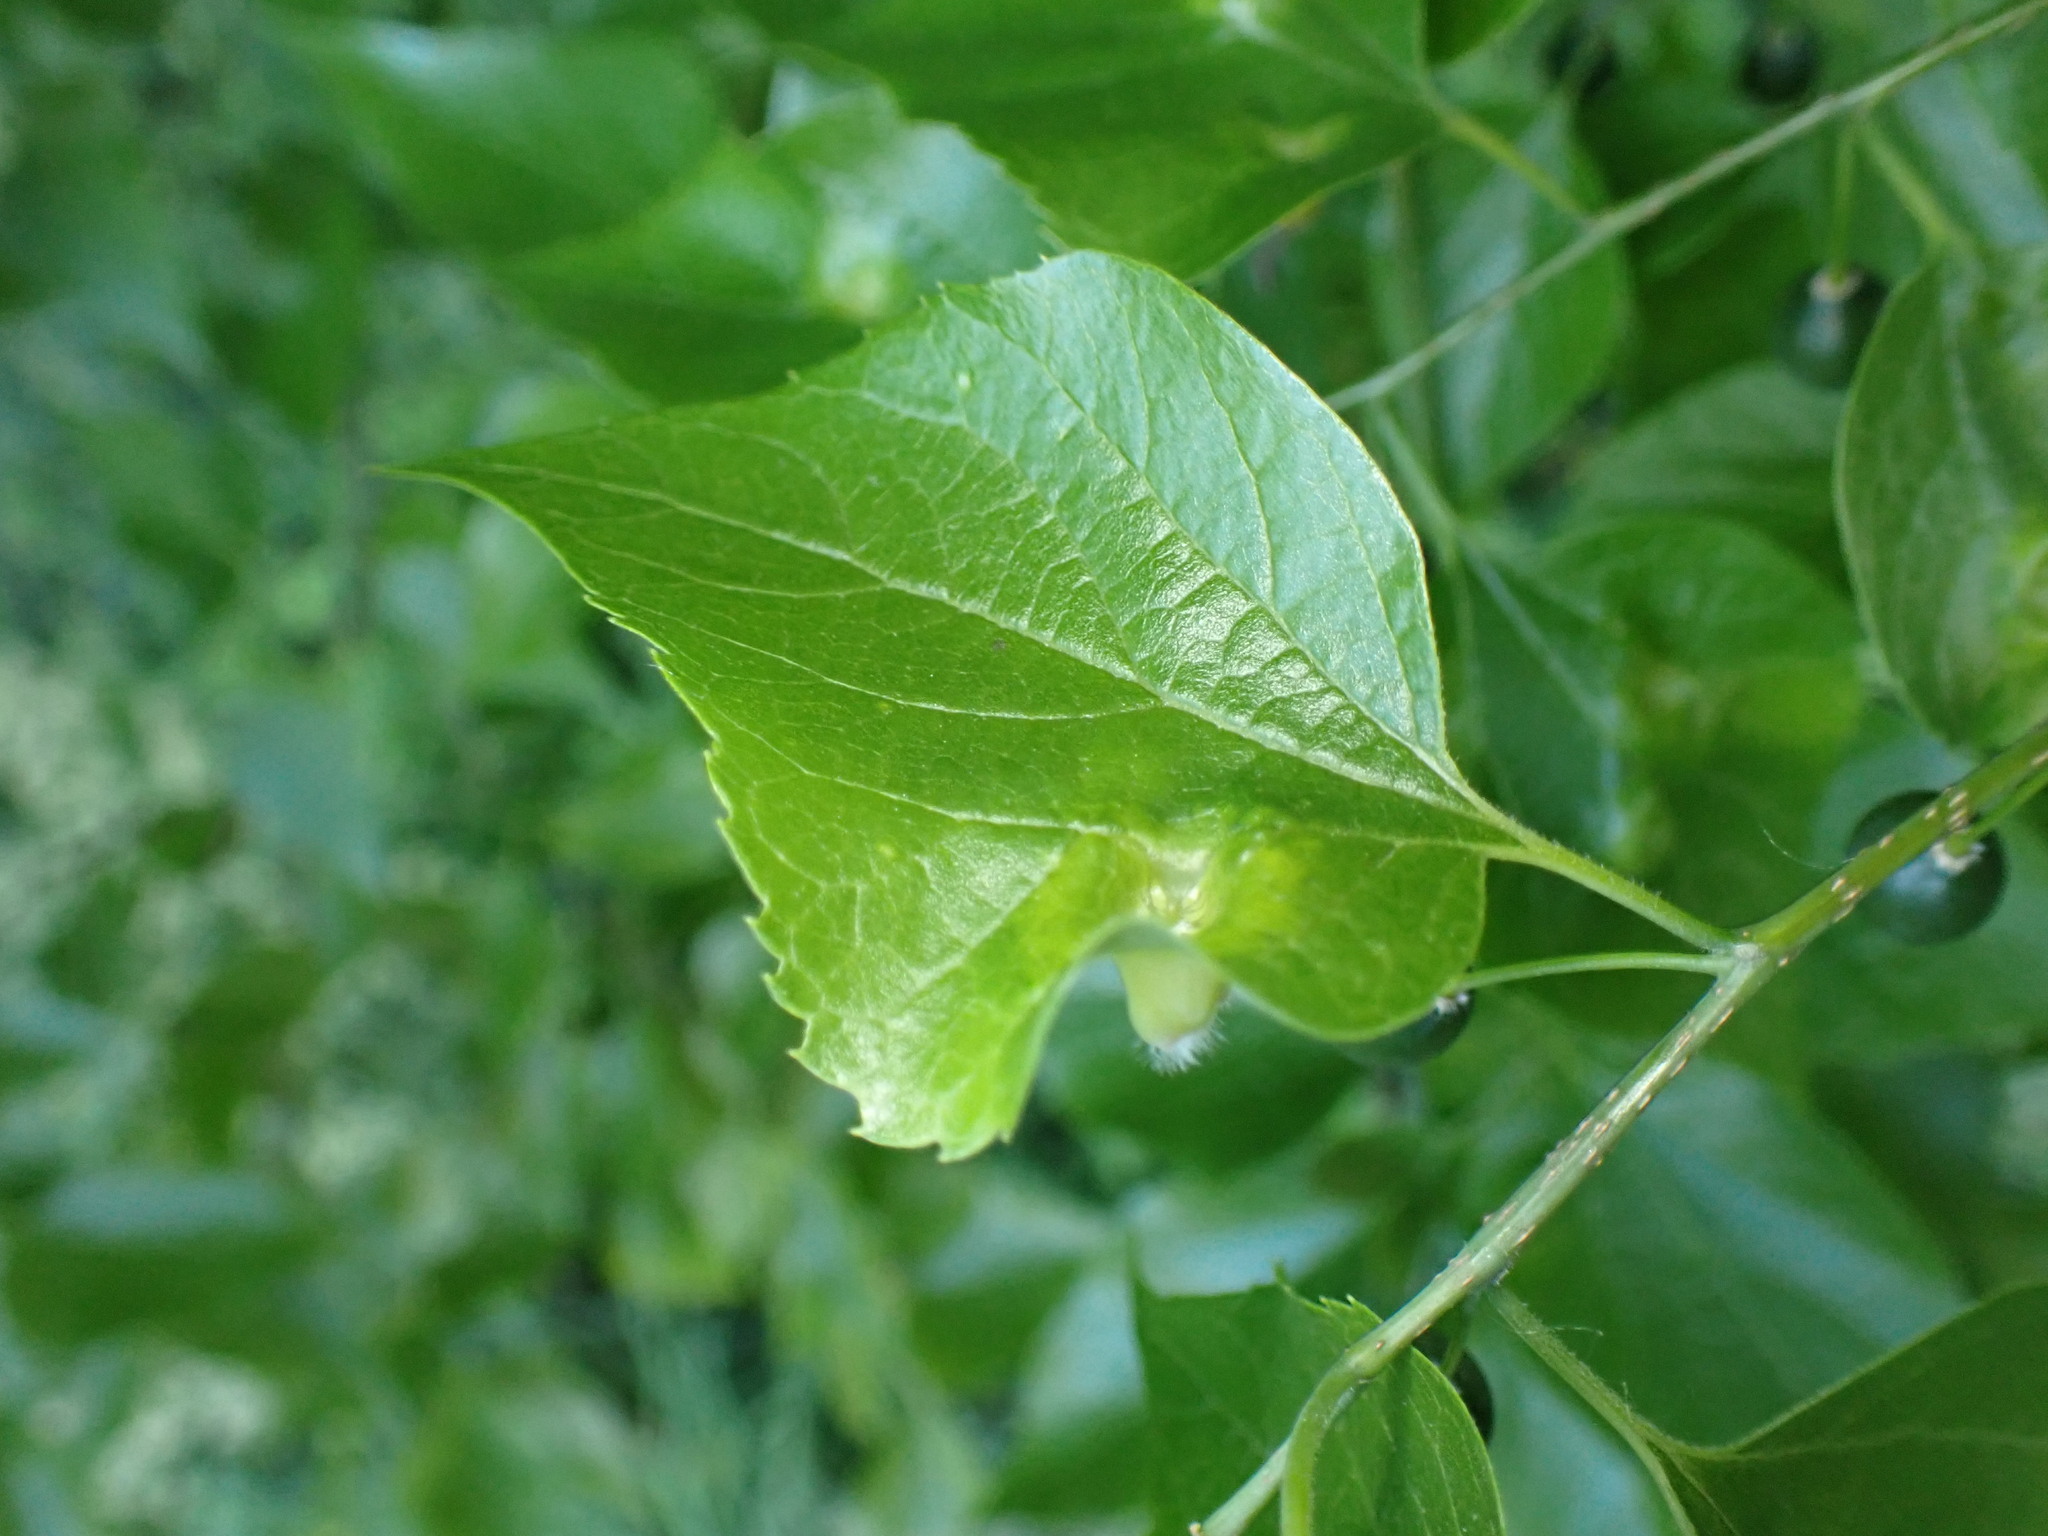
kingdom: Animalia
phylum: Arthropoda
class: Insecta
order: Hemiptera
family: Aphalaridae
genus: Pachypsylla
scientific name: Pachypsylla celtidismamma
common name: Hackberry nipplegall psyllid
